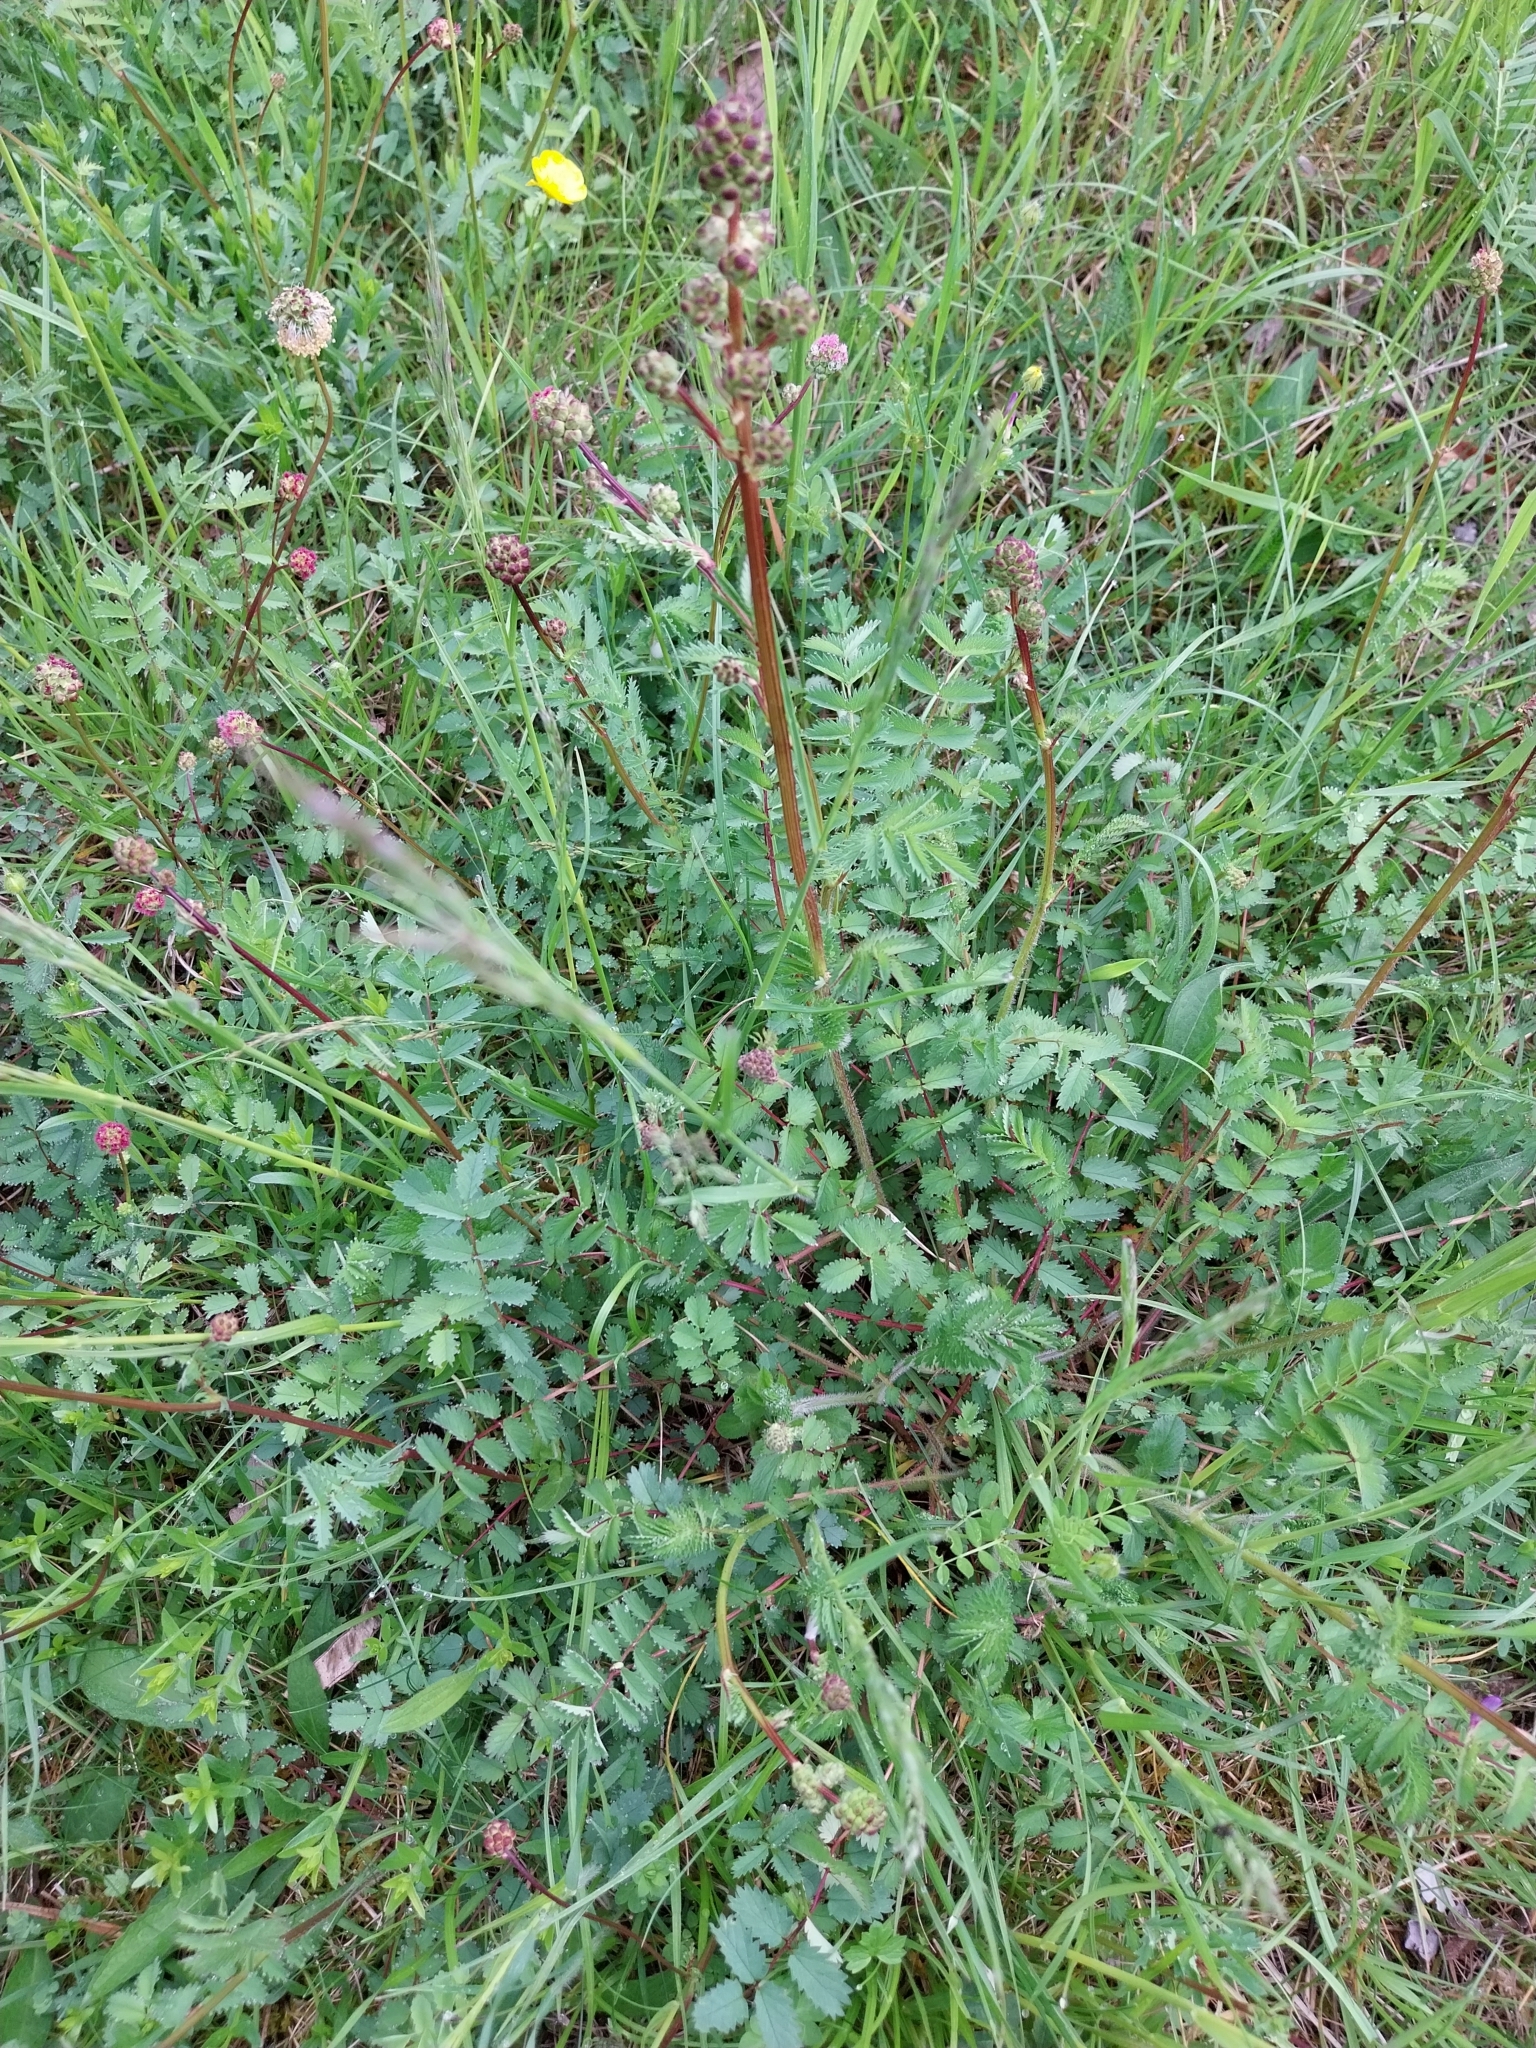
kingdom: Plantae
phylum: Tracheophyta
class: Magnoliopsida
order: Rosales
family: Rosaceae
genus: Poterium
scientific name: Poterium sanguisorba
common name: Salad burnet
